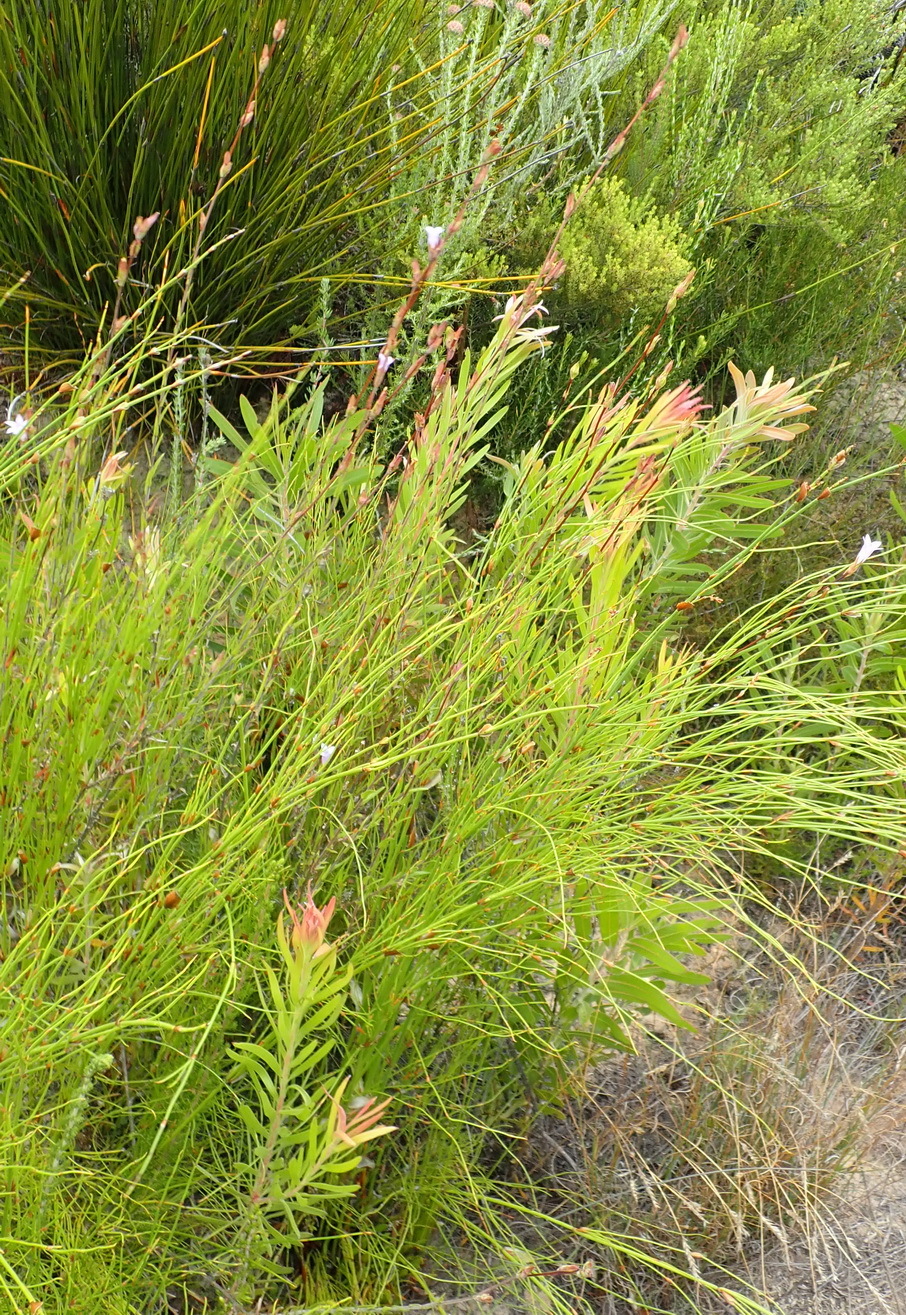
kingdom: Plantae
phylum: Tracheophyta
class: Magnoliopsida
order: Asterales
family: Campanulaceae
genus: Prismatocarpus
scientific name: Prismatocarpus candolleanus
